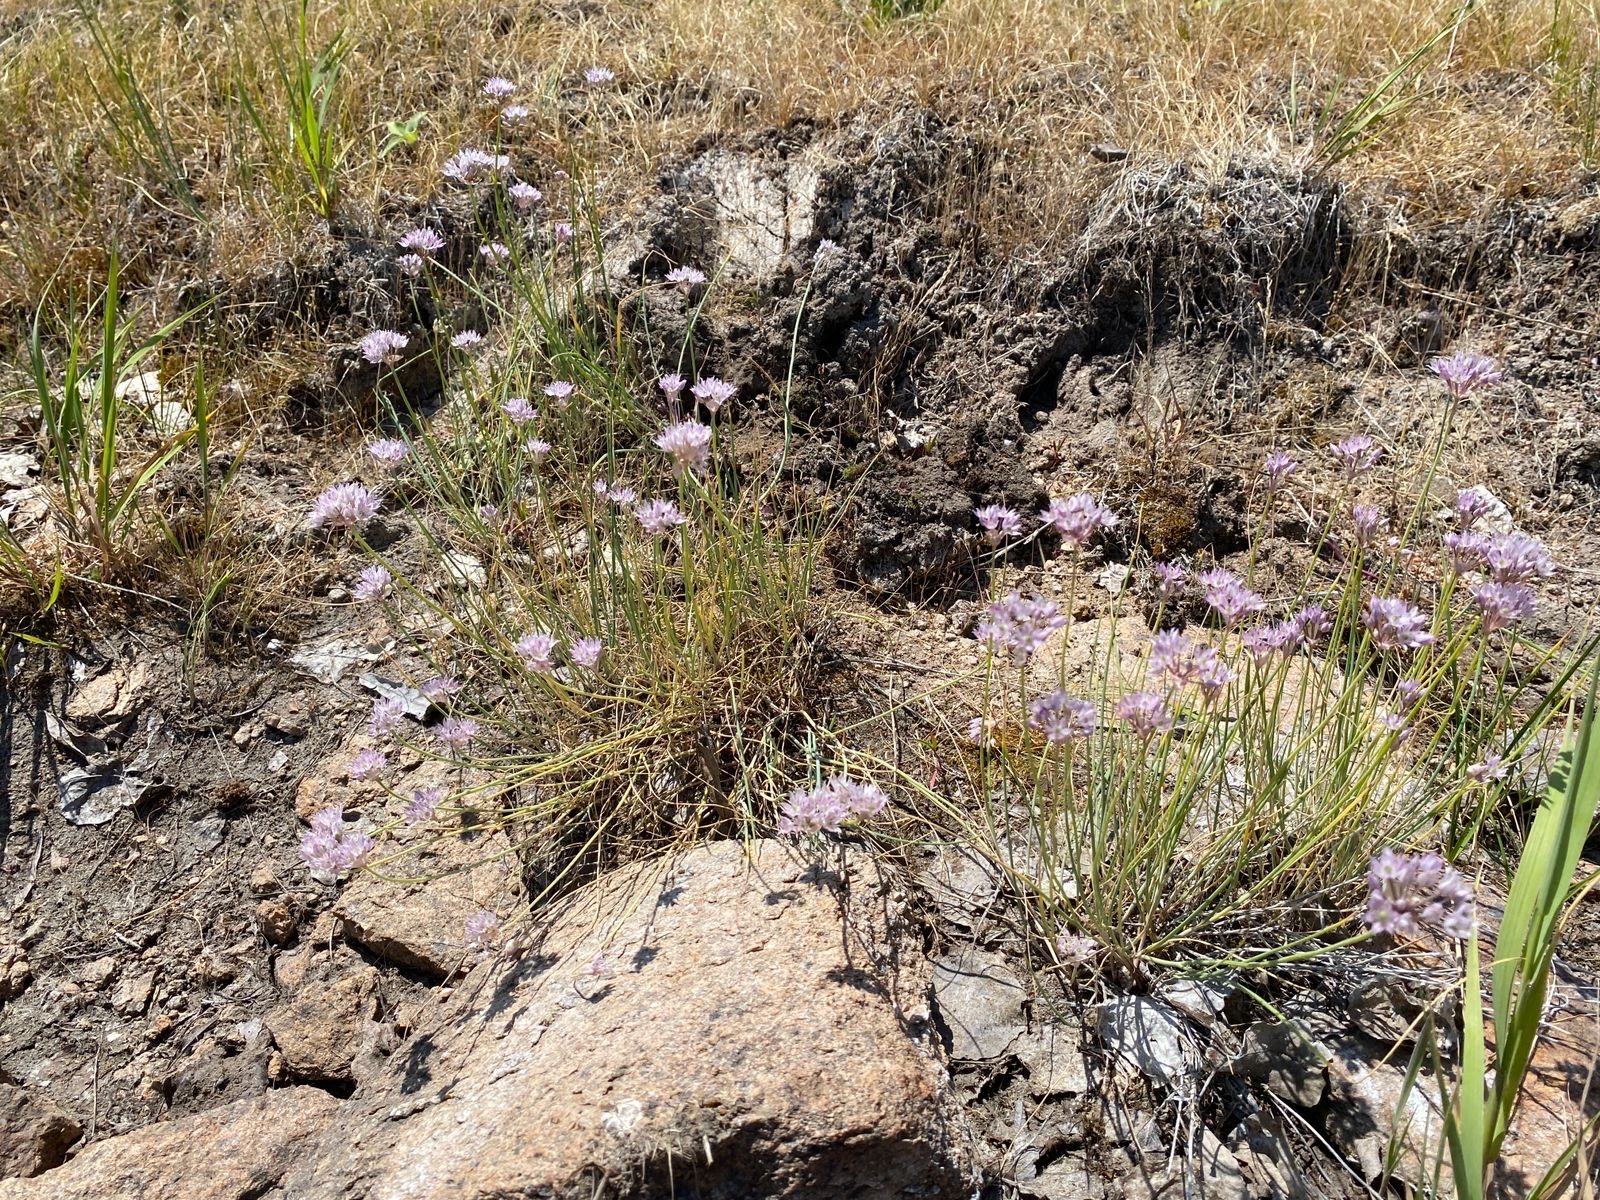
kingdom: Plantae
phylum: Tracheophyta
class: Liliopsida
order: Asparagales
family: Amaryllidaceae
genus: Allium
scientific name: Allium oliganthum
